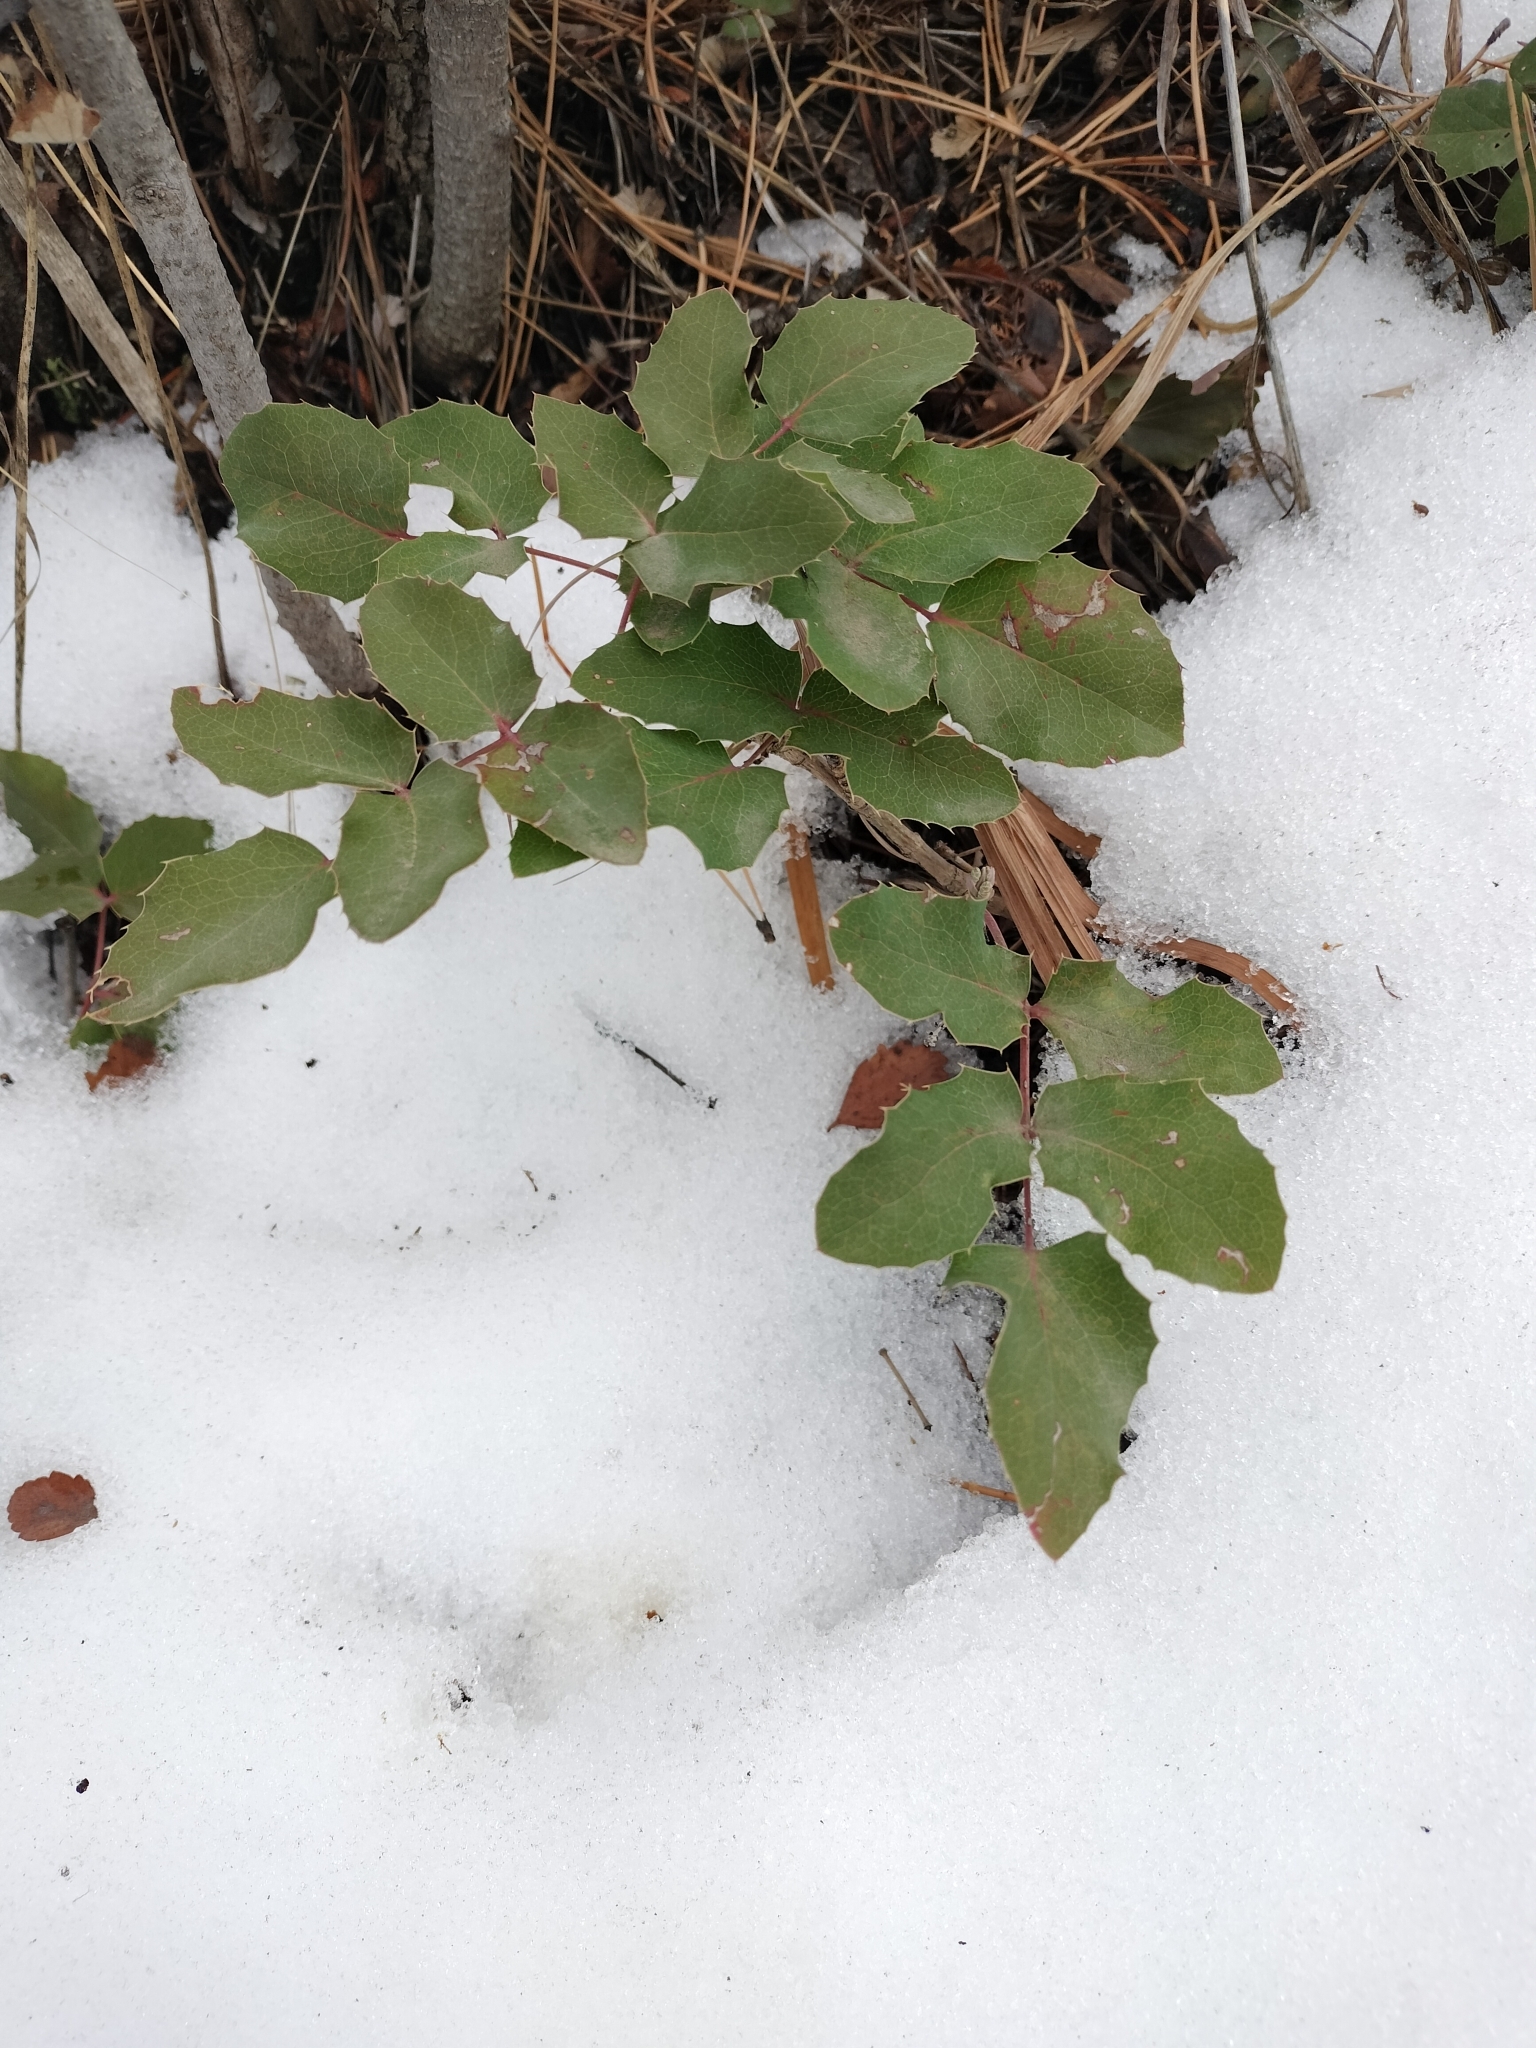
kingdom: Plantae
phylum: Tracheophyta
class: Magnoliopsida
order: Ranunculales
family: Berberidaceae
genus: Mahonia
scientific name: Mahonia repens
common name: Creeping oregon-grape
